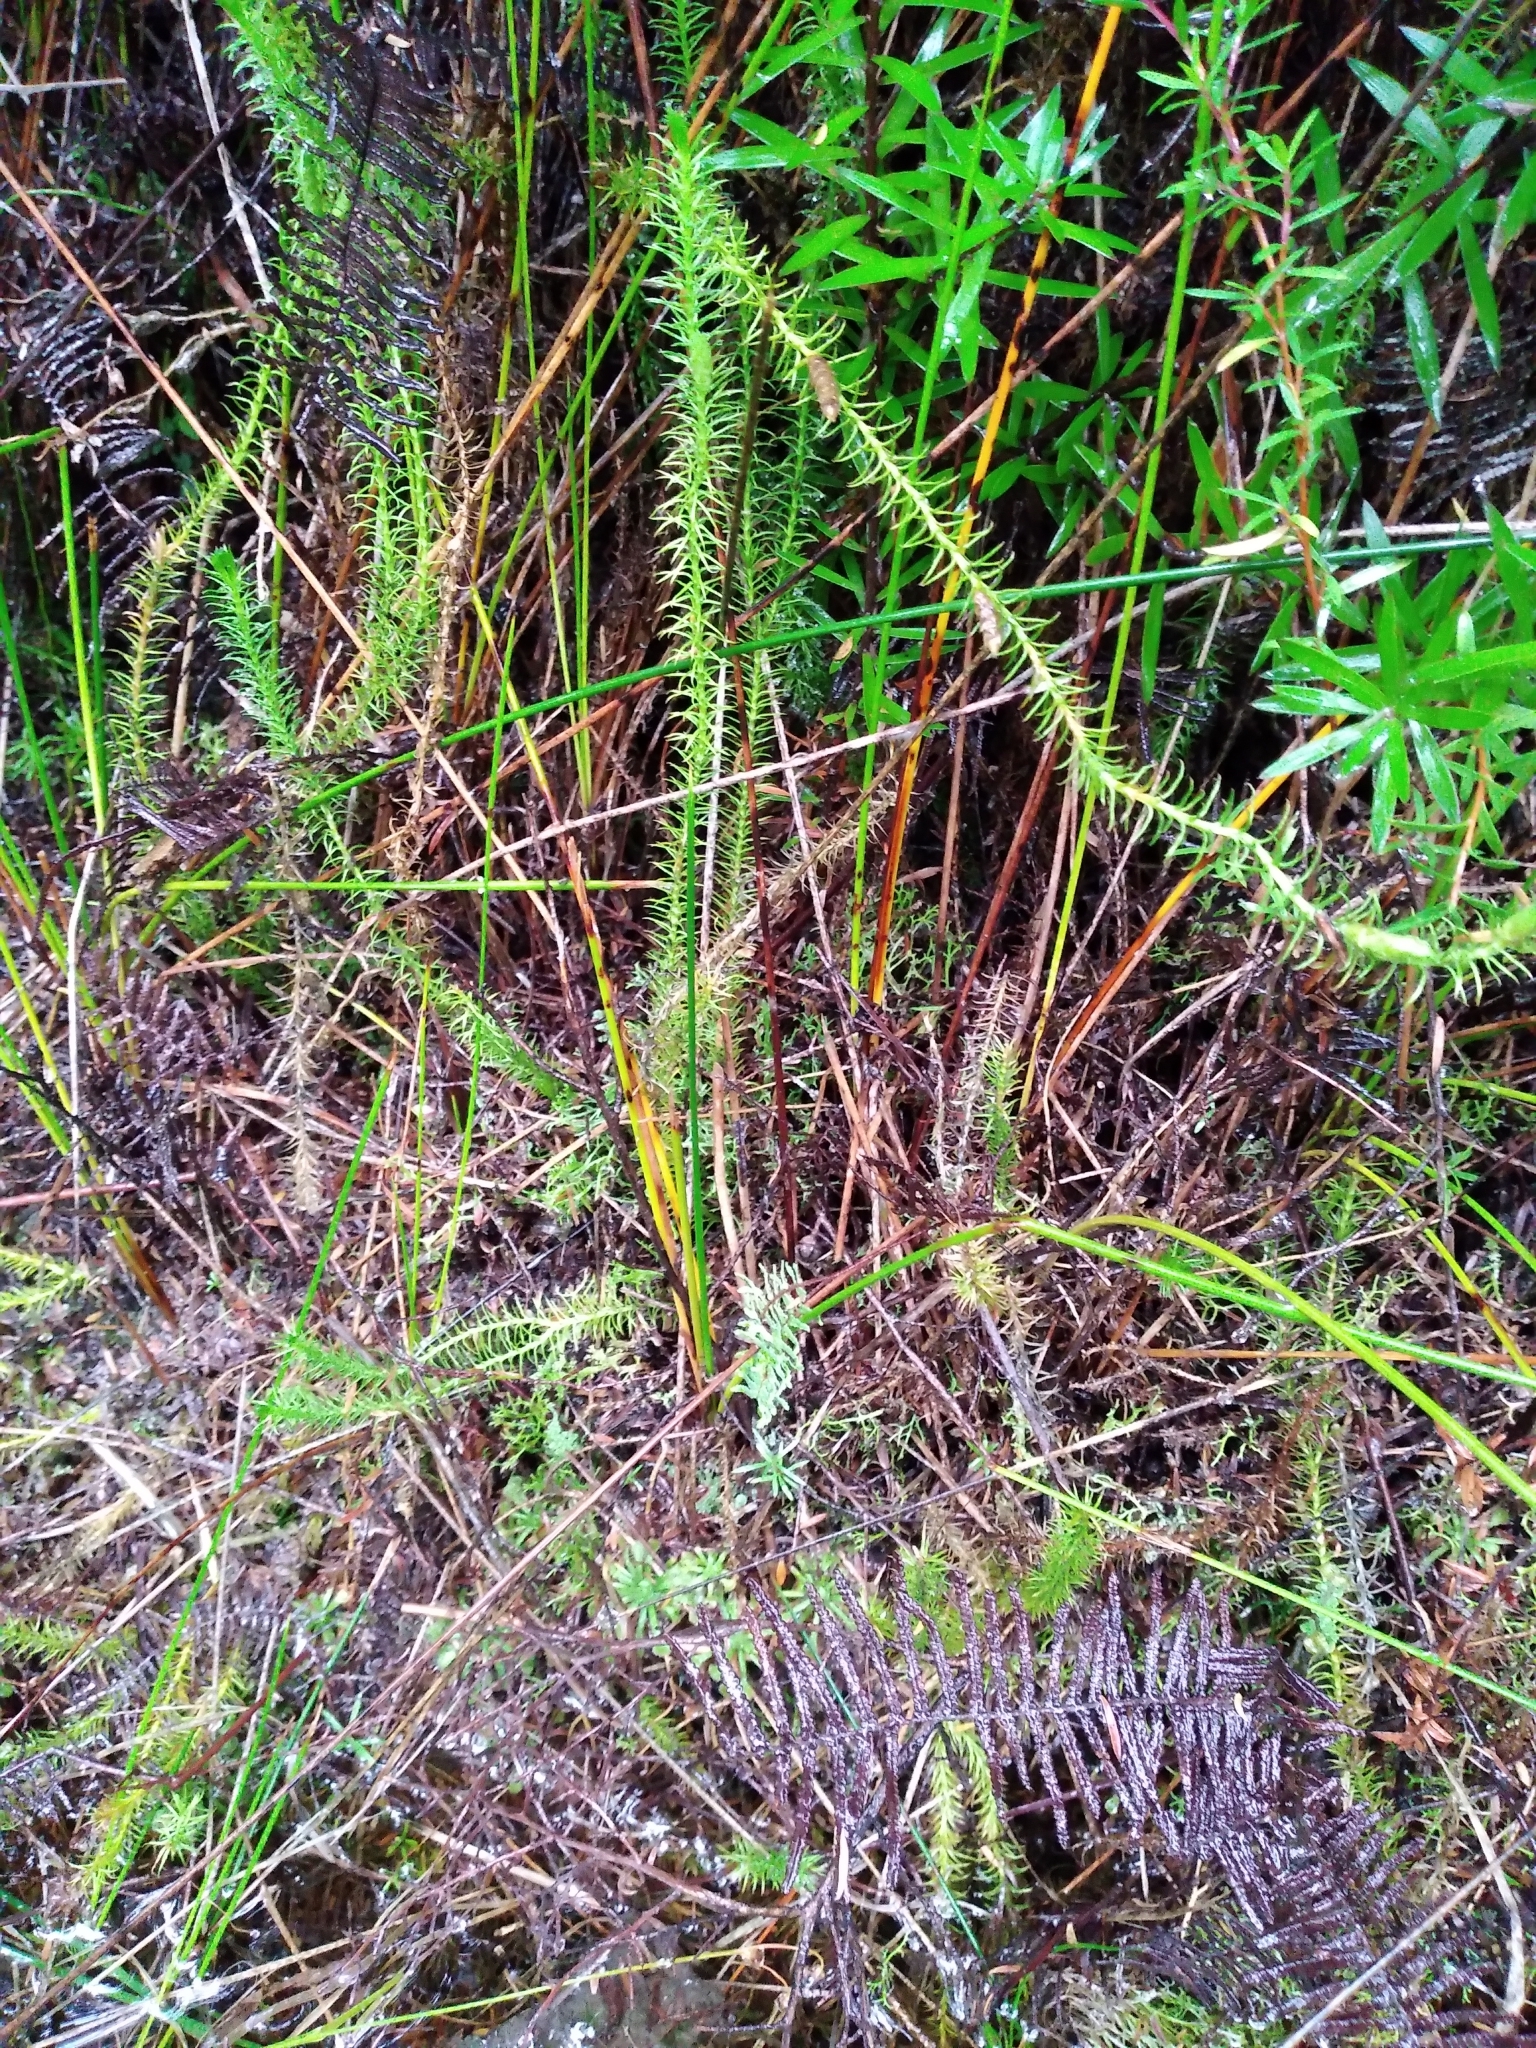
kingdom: Plantae
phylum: Tracheophyta
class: Lycopodiopsida
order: Lycopodiales
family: Lycopodiaceae
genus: Lateristachys
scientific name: Lateristachys lateralis
